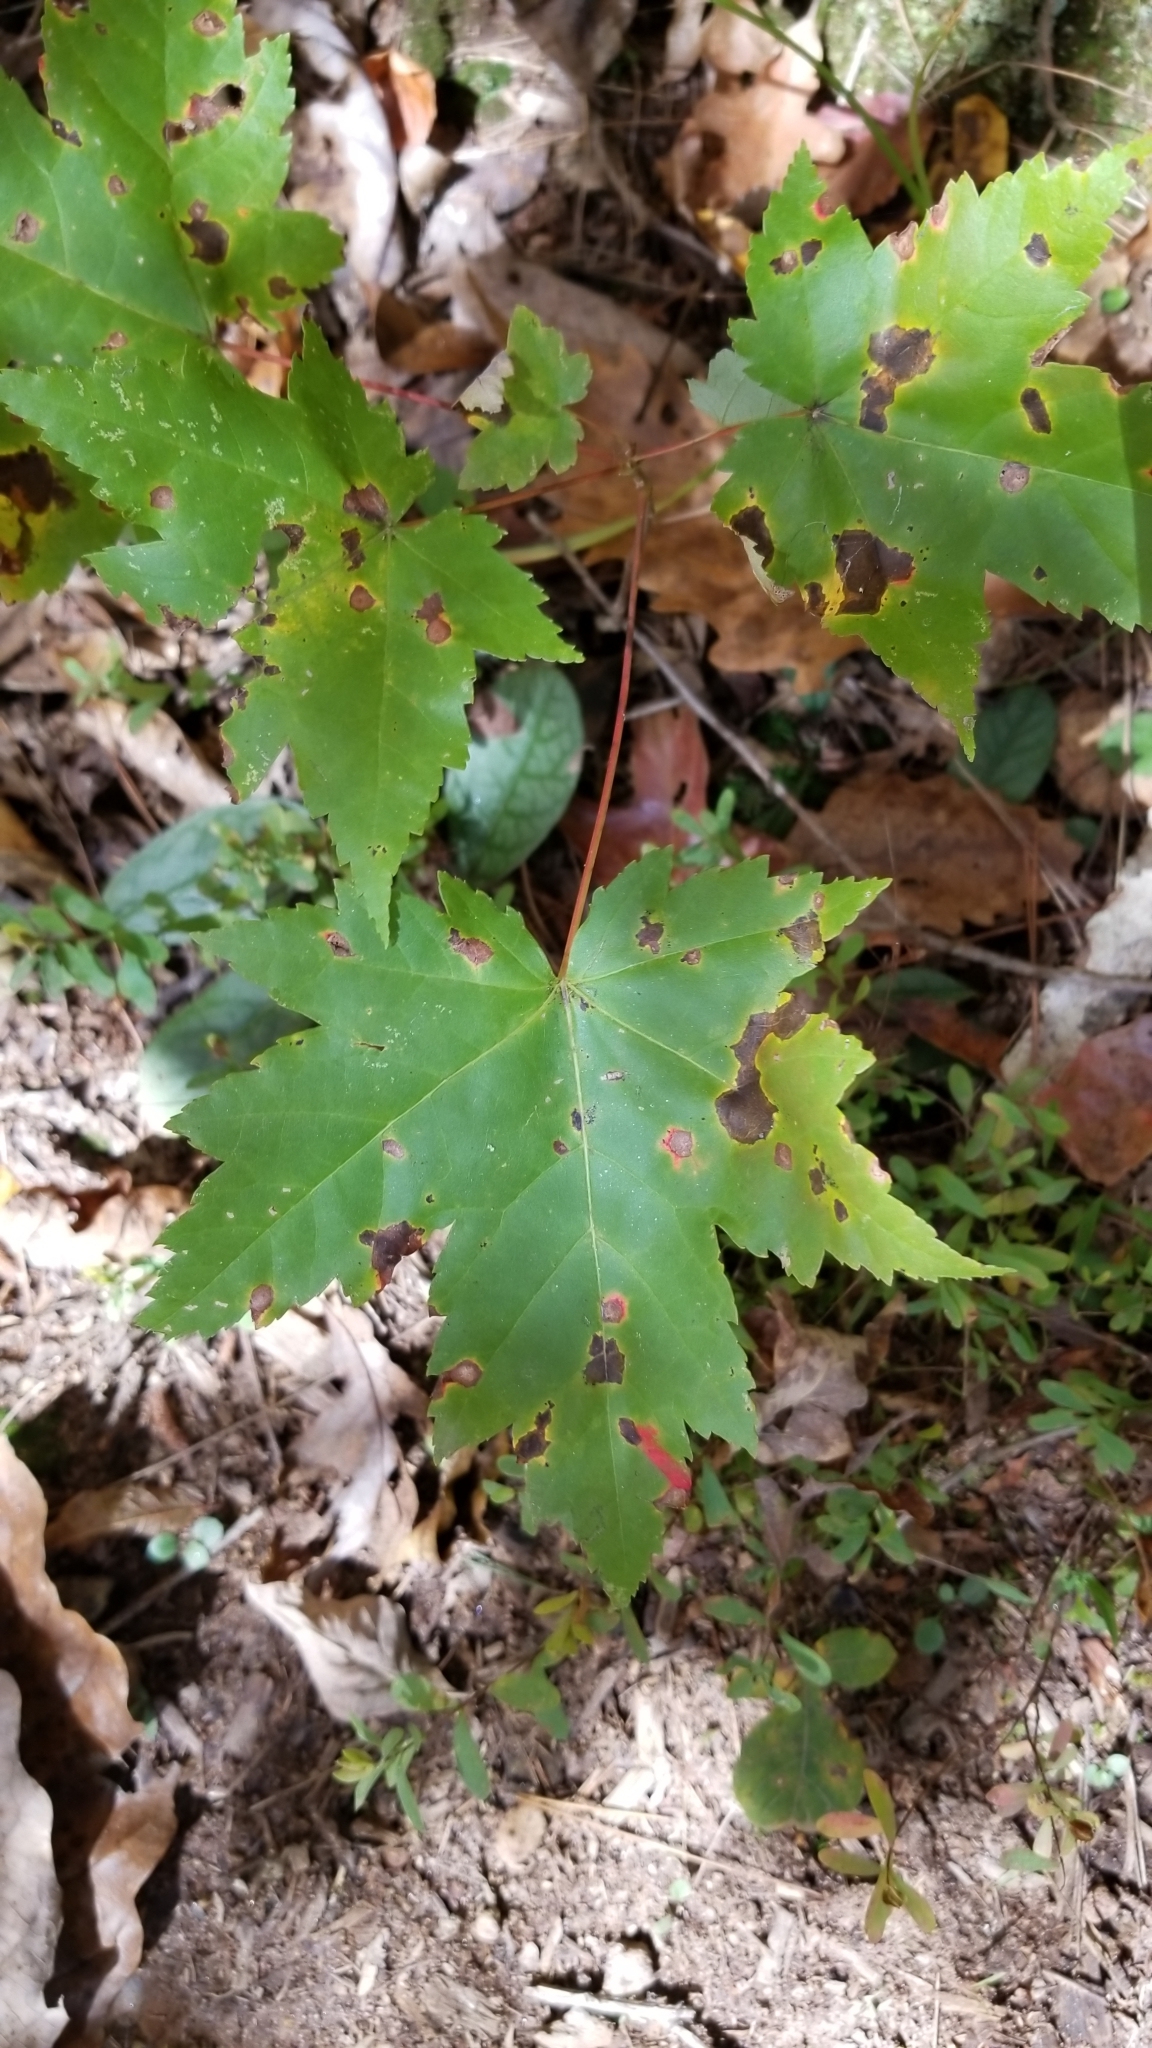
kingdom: Plantae
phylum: Tracheophyta
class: Magnoliopsida
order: Sapindales
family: Sapindaceae
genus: Acer
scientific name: Acer rubrum
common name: Red maple
